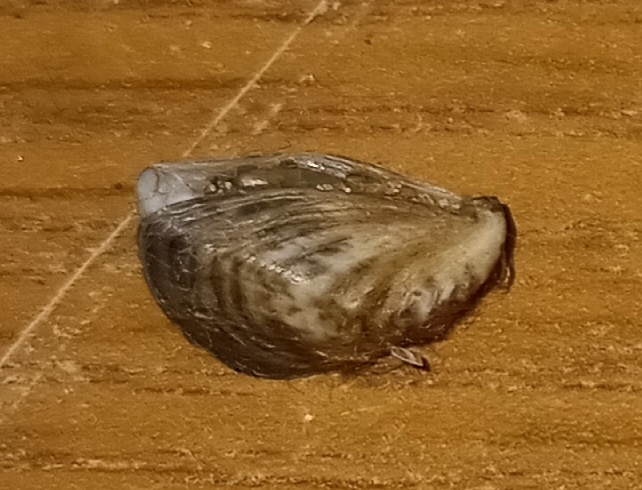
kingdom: Animalia
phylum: Mollusca
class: Bivalvia
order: Myida
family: Dreissenidae
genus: Dreissena
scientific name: Dreissena polymorpha
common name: Zebra mussel
